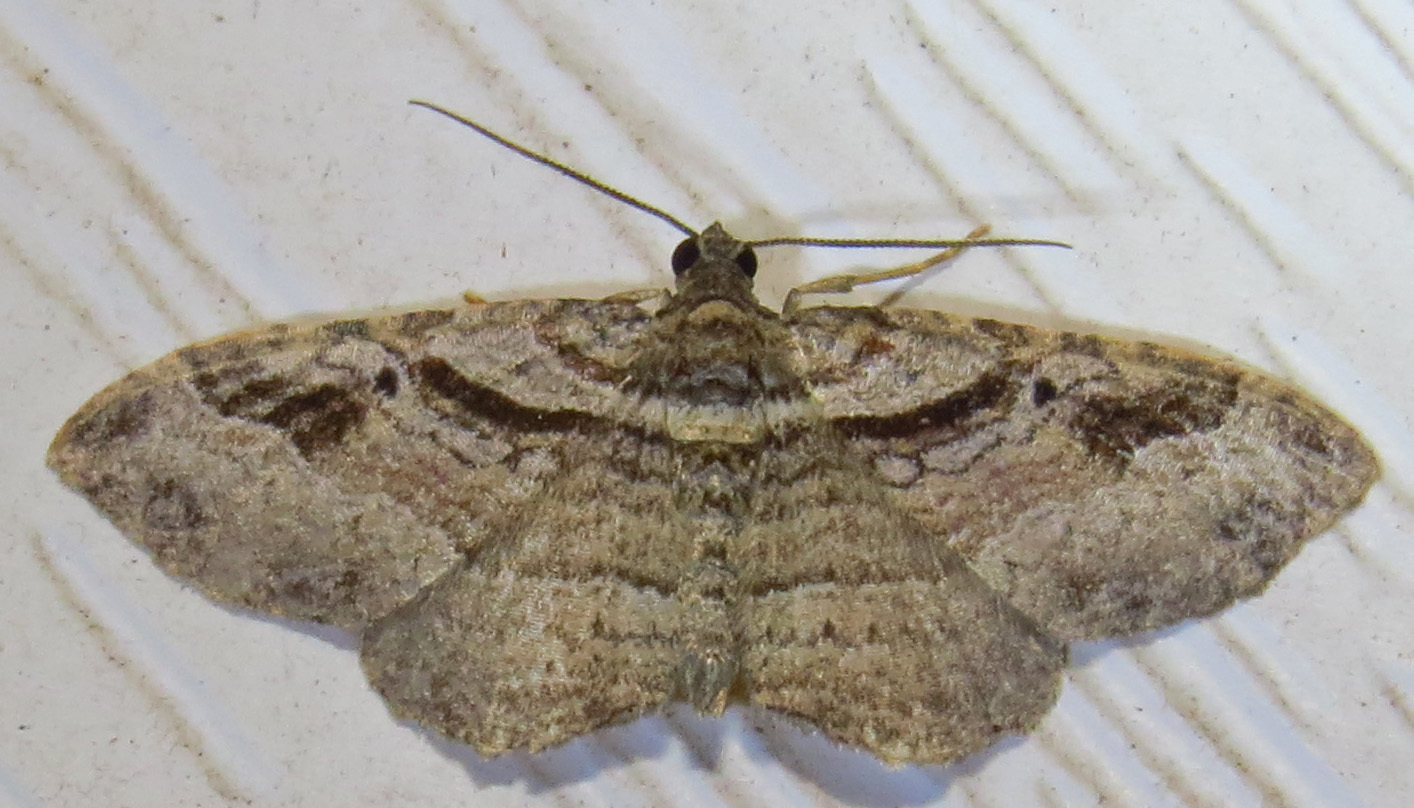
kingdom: Animalia
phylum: Arthropoda
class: Insecta
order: Lepidoptera
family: Geometridae
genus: Costaconvexa
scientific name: Costaconvexa centrostrigaria
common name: Bent-line carpet
